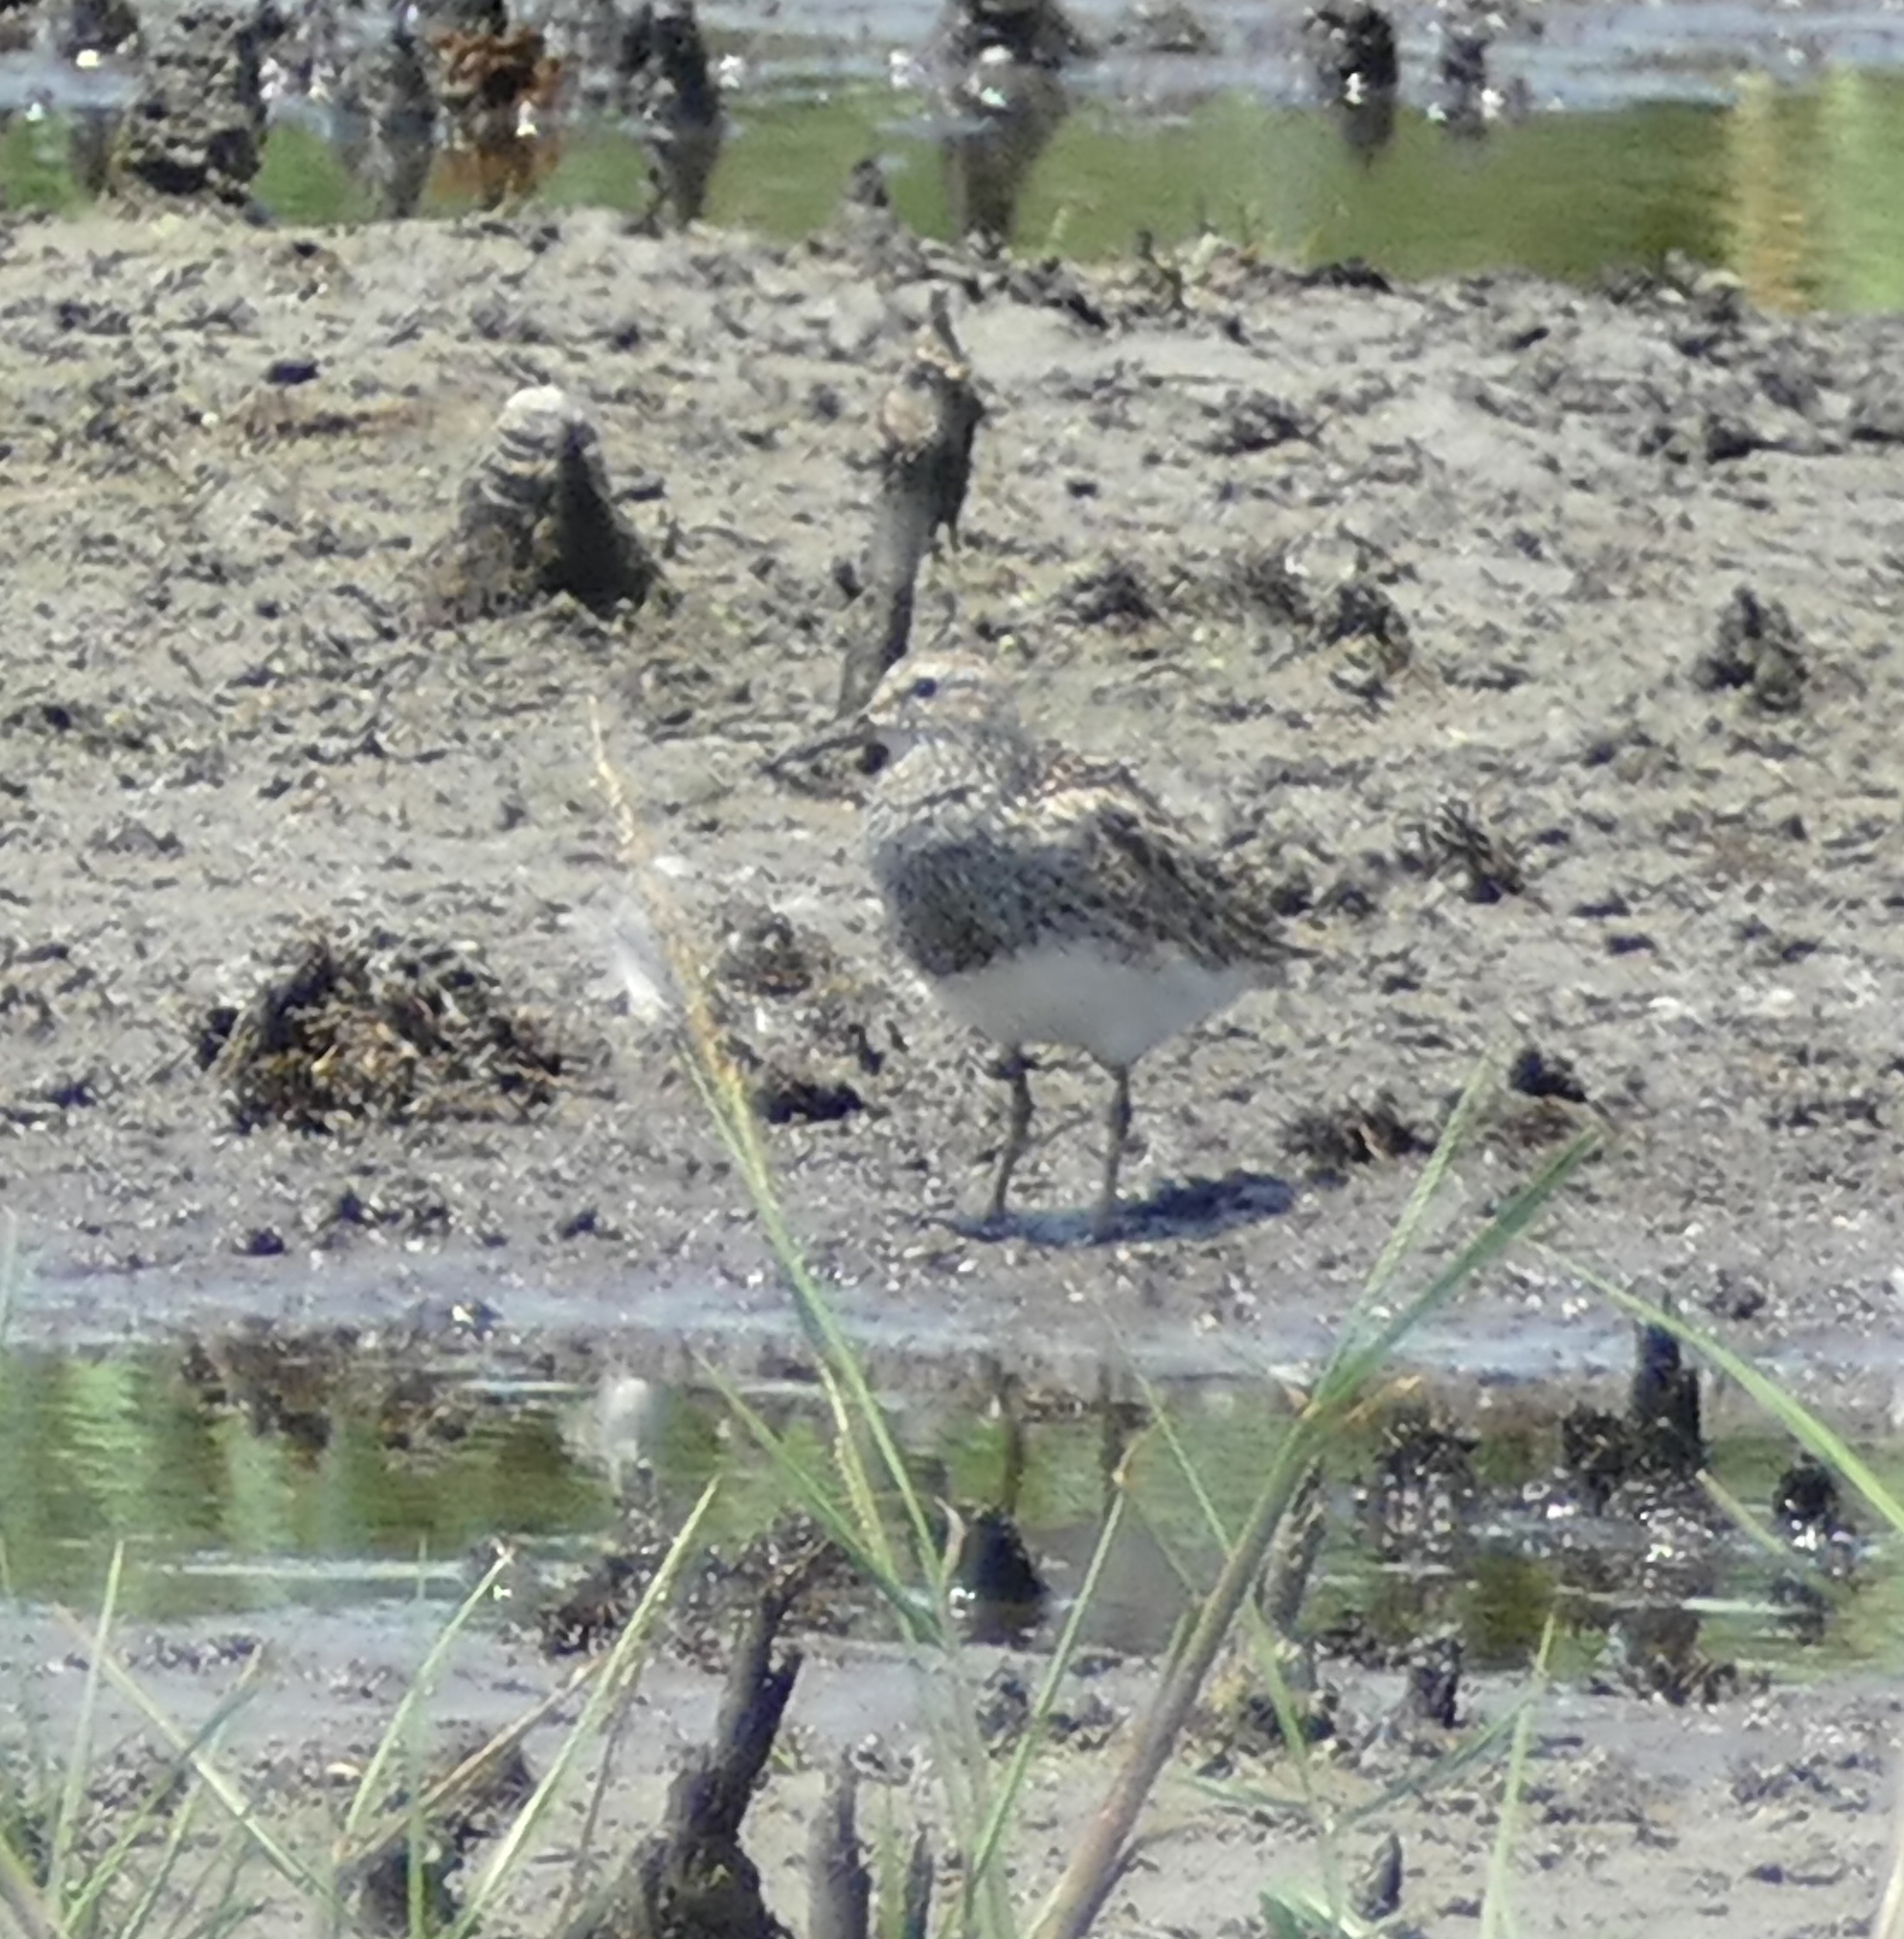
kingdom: Animalia
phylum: Chordata
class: Aves
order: Charadriiformes
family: Scolopacidae
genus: Calidris
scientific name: Calidris melanotos
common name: Pectoral sandpiper
